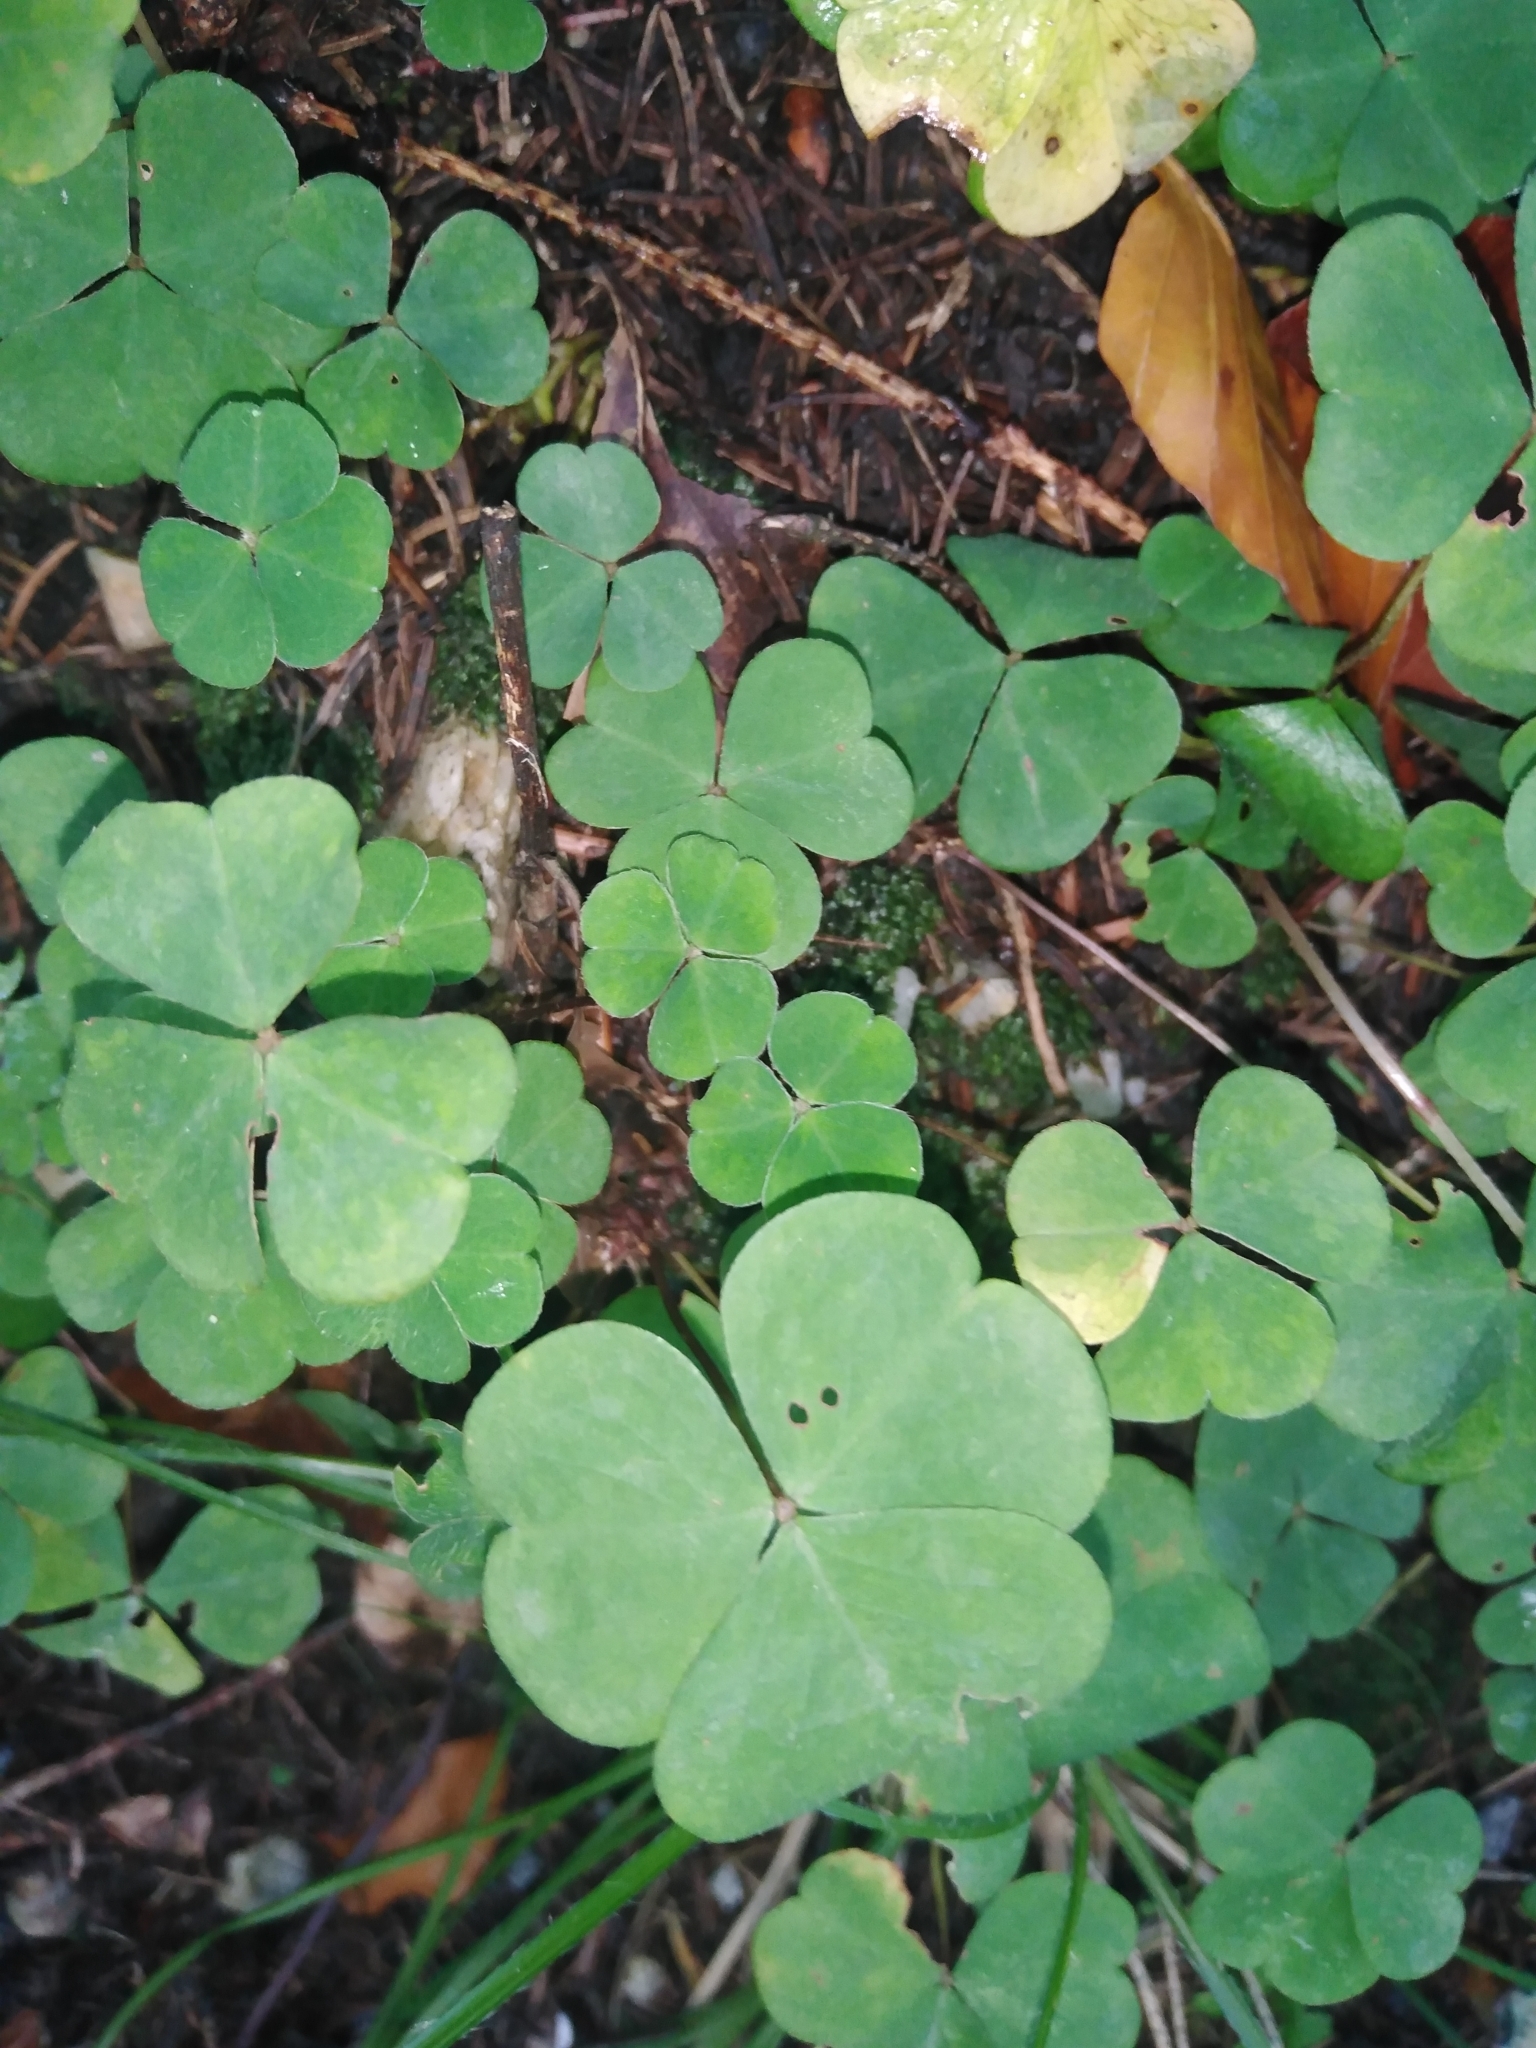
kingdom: Plantae
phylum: Tracheophyta
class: Magnoliopsida
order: Oxalidales
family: Oxalidaceae
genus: Oxalis
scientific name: Oxalis acetosella
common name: Wood-sorrel
